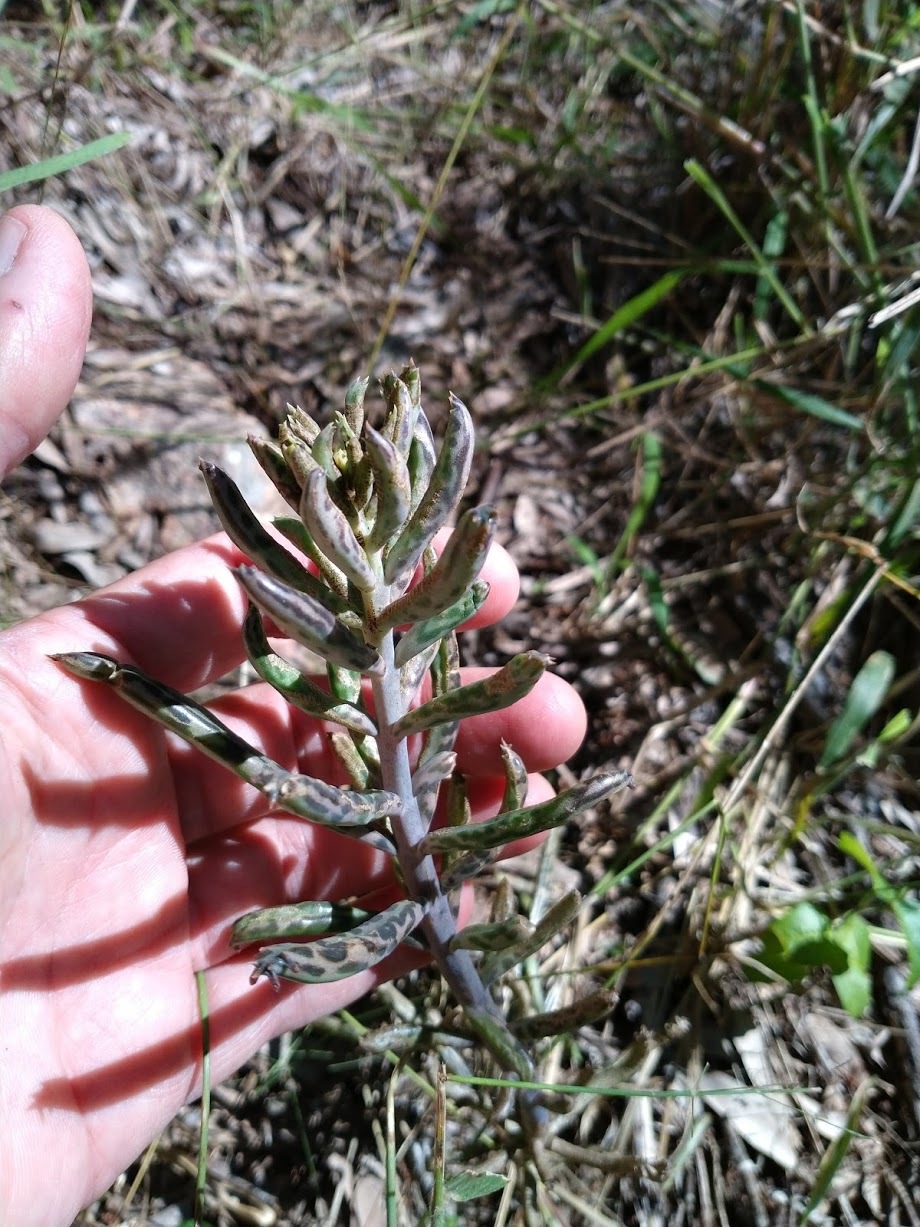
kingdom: Plantae
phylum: Tracheophyta
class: Magnoliopsida
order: Saxifragales
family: Crassulaceae
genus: Kalanchoe
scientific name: Kalanchoe delagoensis
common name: Chandelier plant
